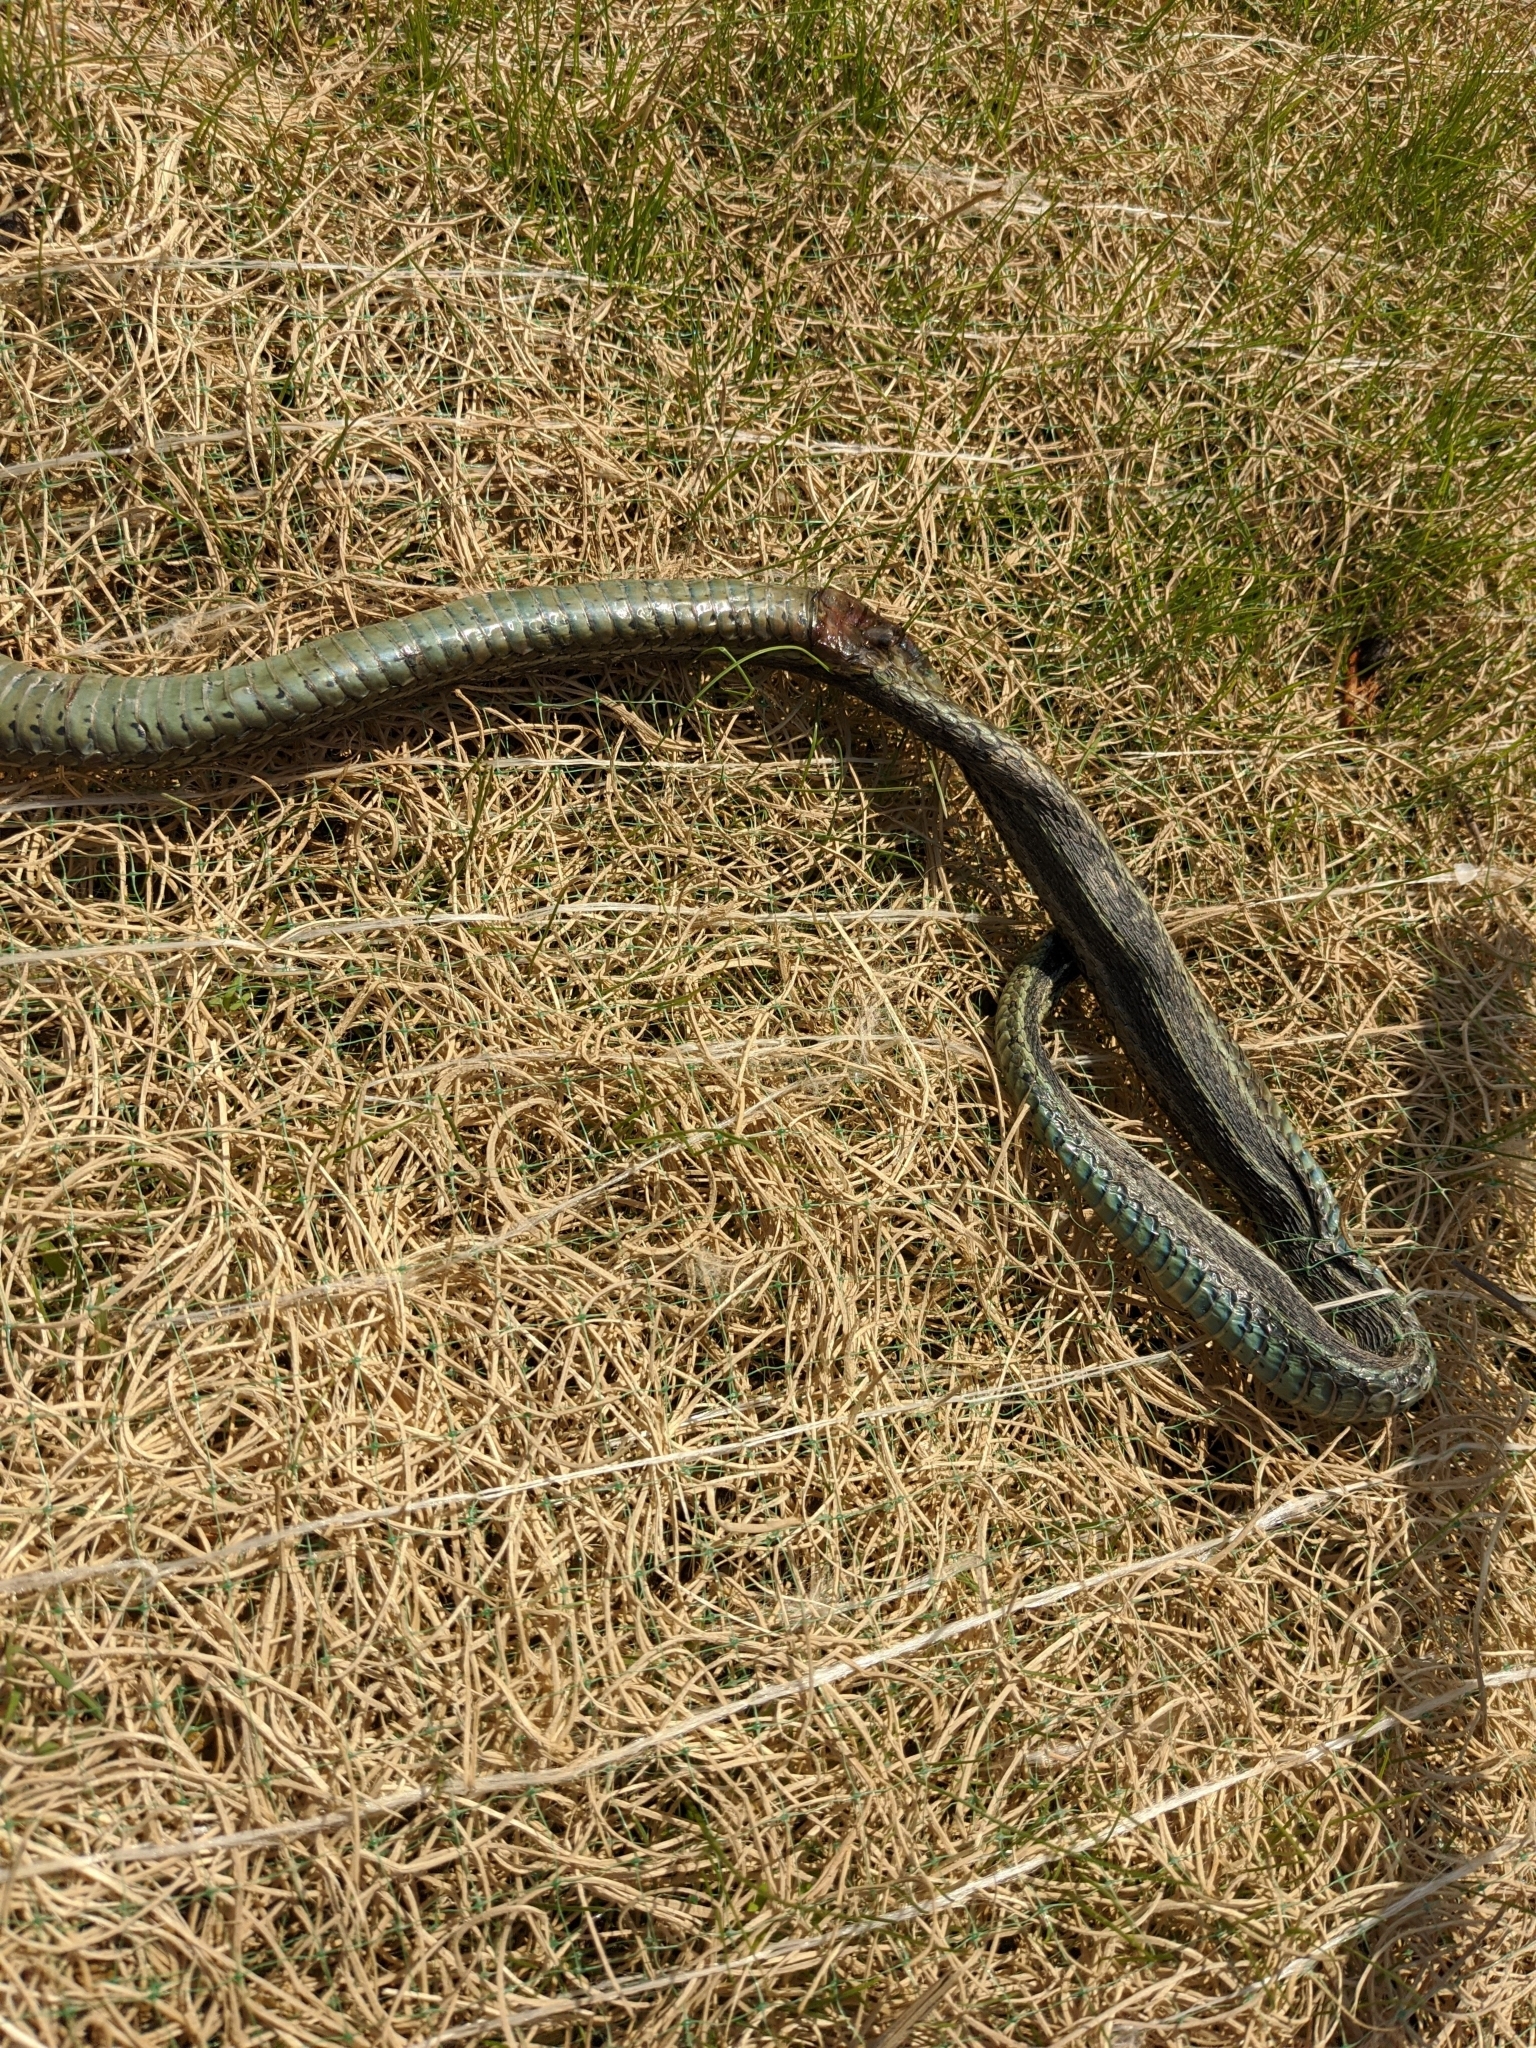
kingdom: Animalia
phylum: Chordata
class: Squamata
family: Colubridae
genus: Thamnophis
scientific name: Thamnophis sirtalis
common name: Common garter snake
